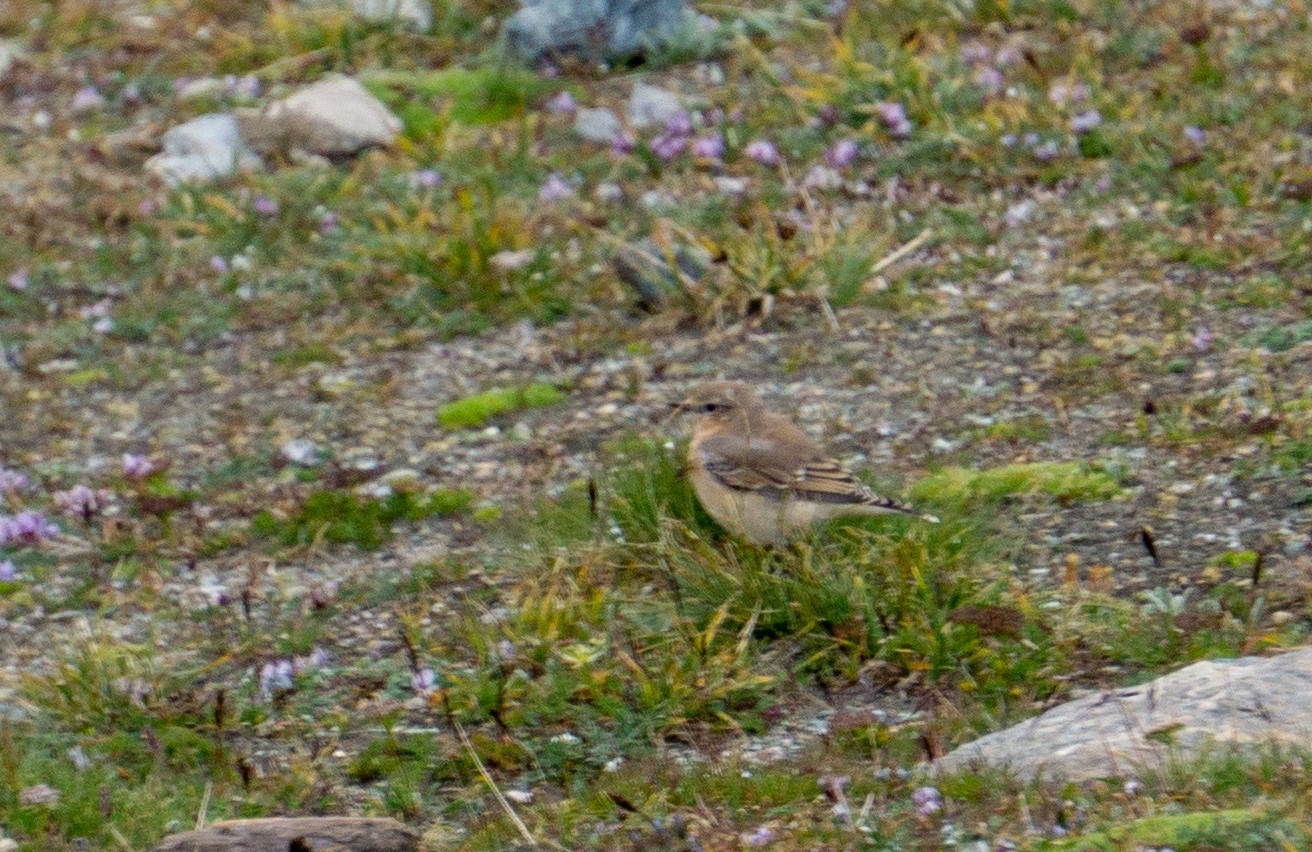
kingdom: Animalia
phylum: Chordata
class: Aves
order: Passeriformes
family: Muscicapidae
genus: Oenanthe
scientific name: Oenanthe oenanthe
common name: Northern wheatear
